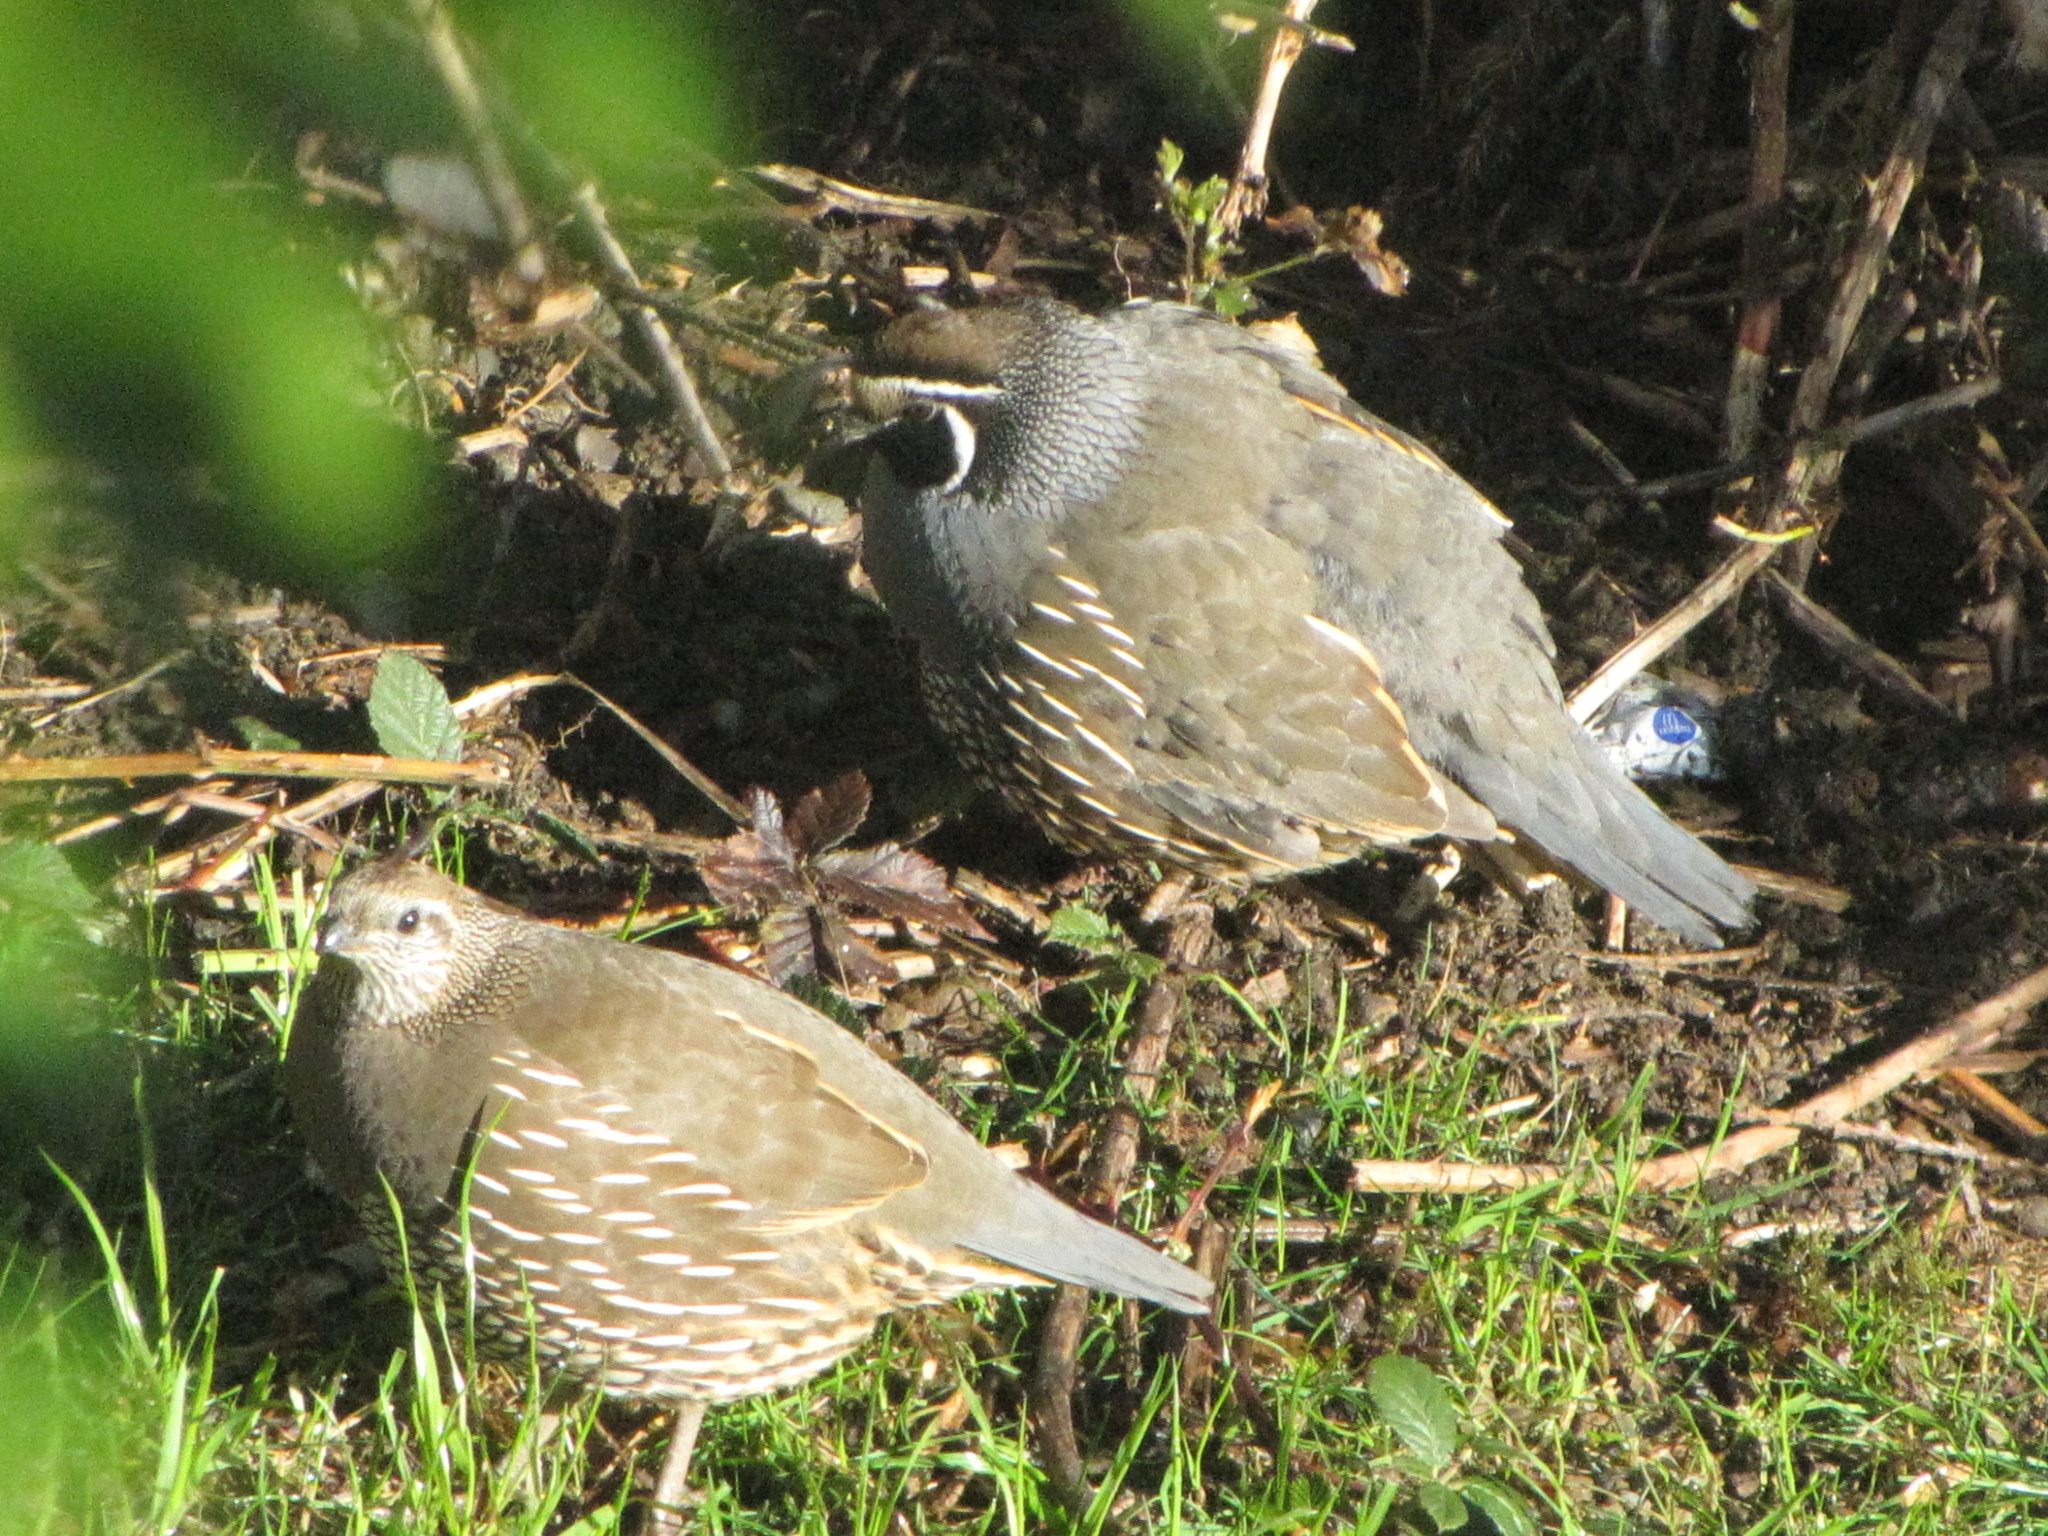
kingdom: Animalia
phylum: Chordata
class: Aves
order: Galliformes
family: Odontophoridae
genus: Callipepla
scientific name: Callipepla californica
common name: California quail
